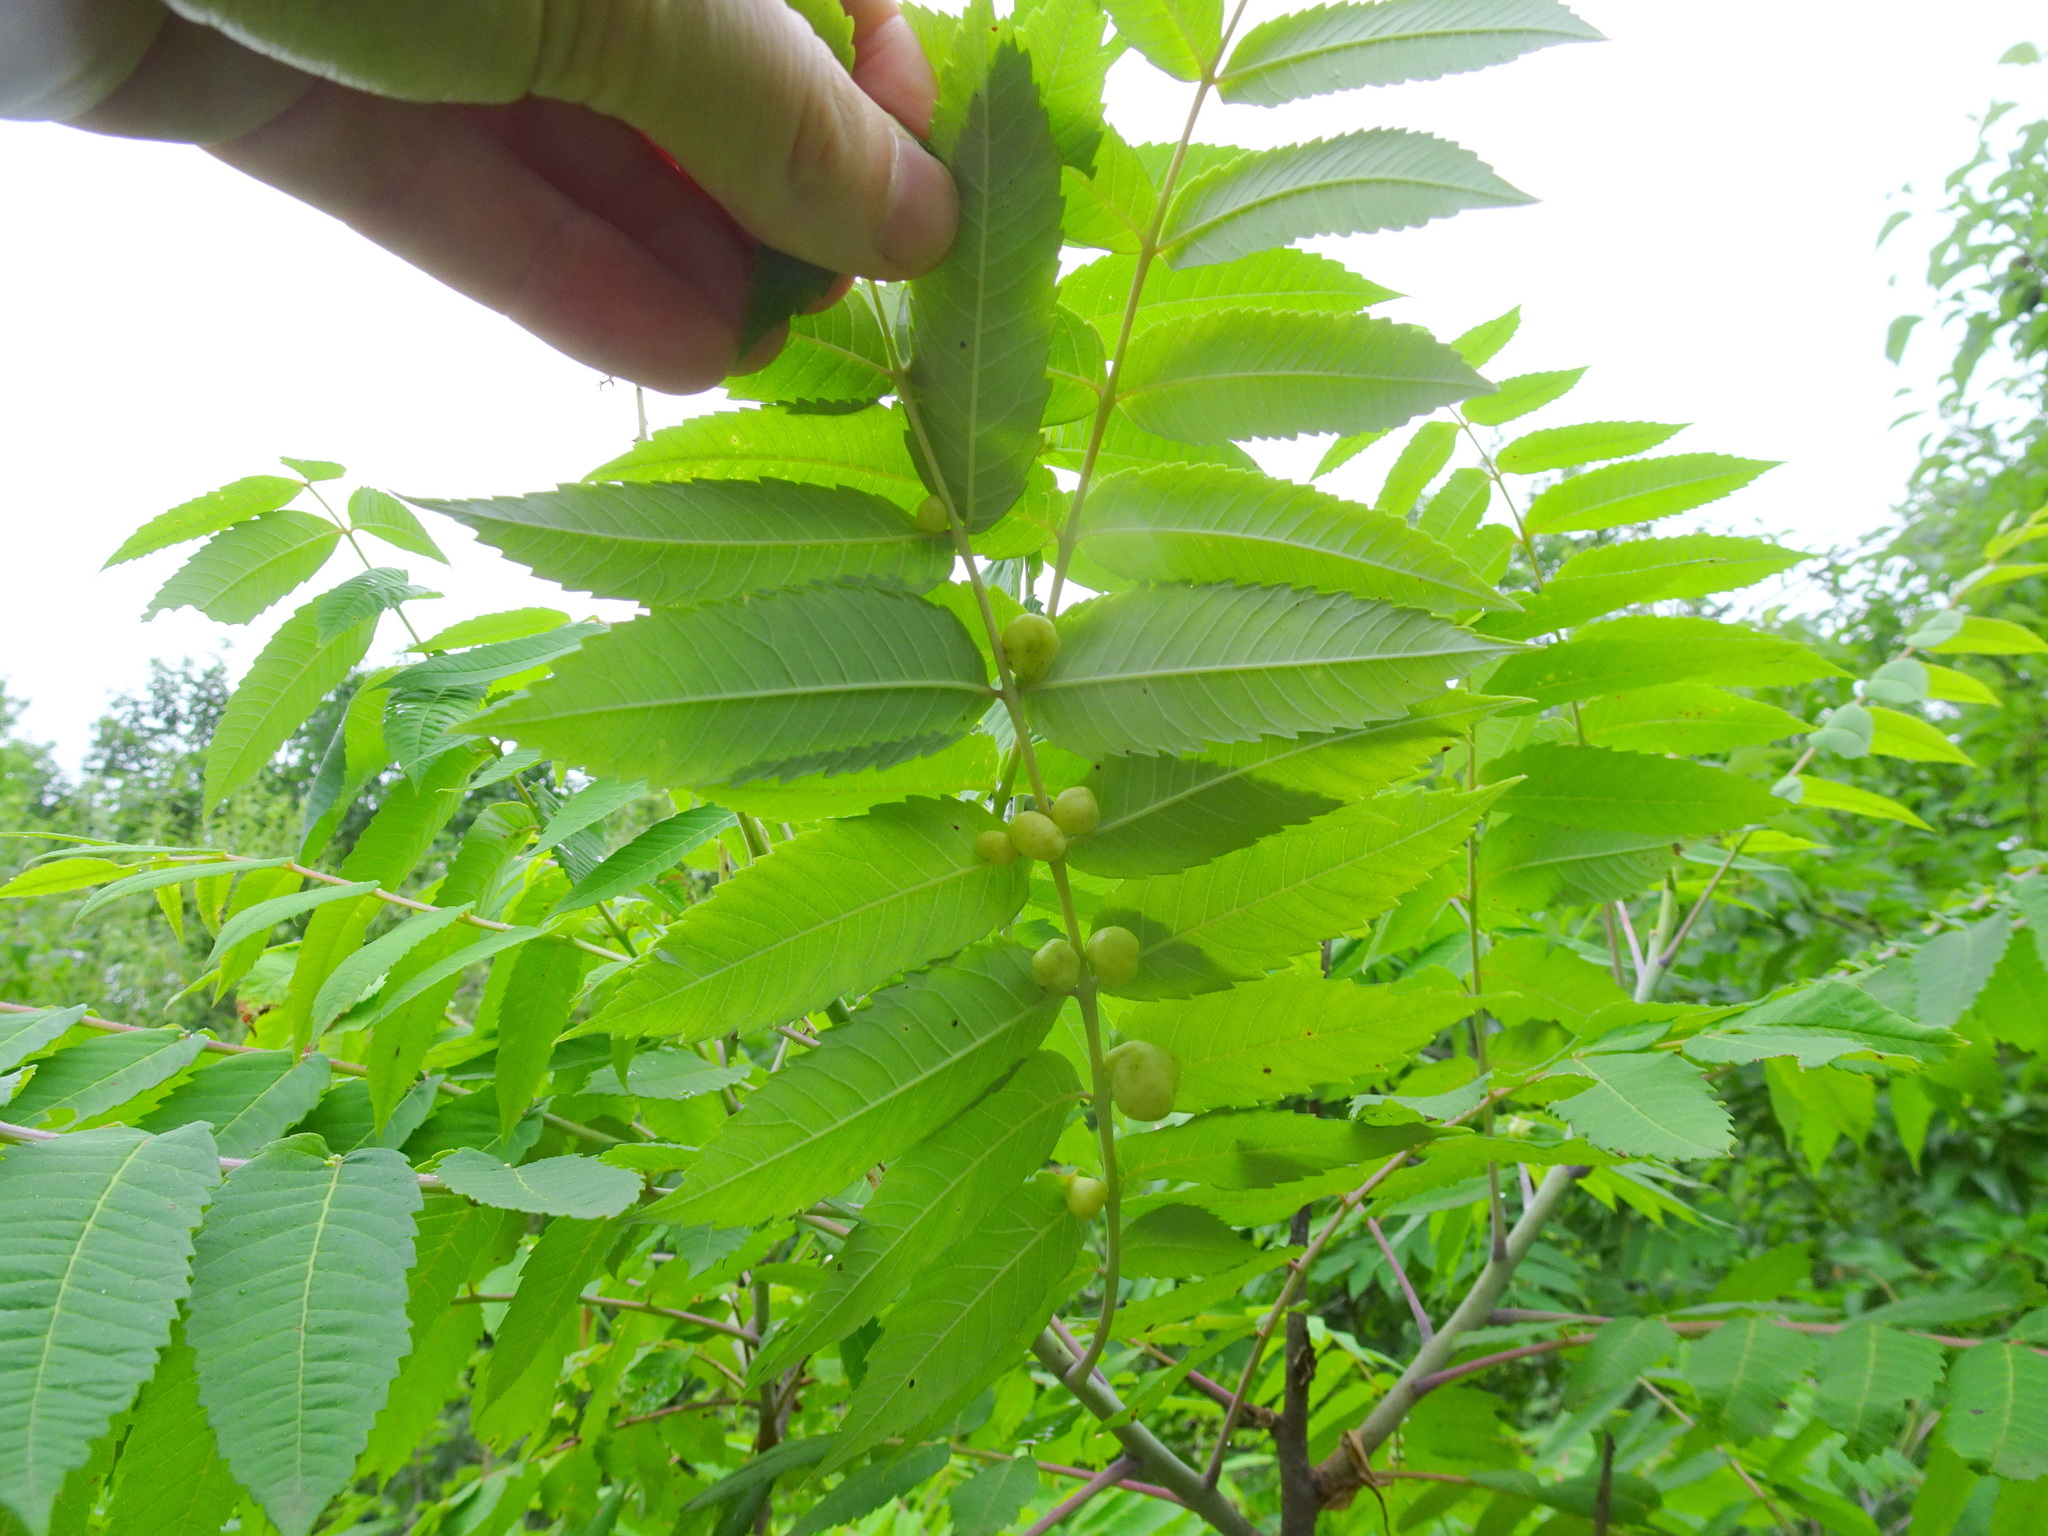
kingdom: Animalia
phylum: Arthropoda
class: Insecta
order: Hemiptera
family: Aphididae
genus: Melaphis
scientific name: Melaphis rhois
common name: Sumac gall aphid
